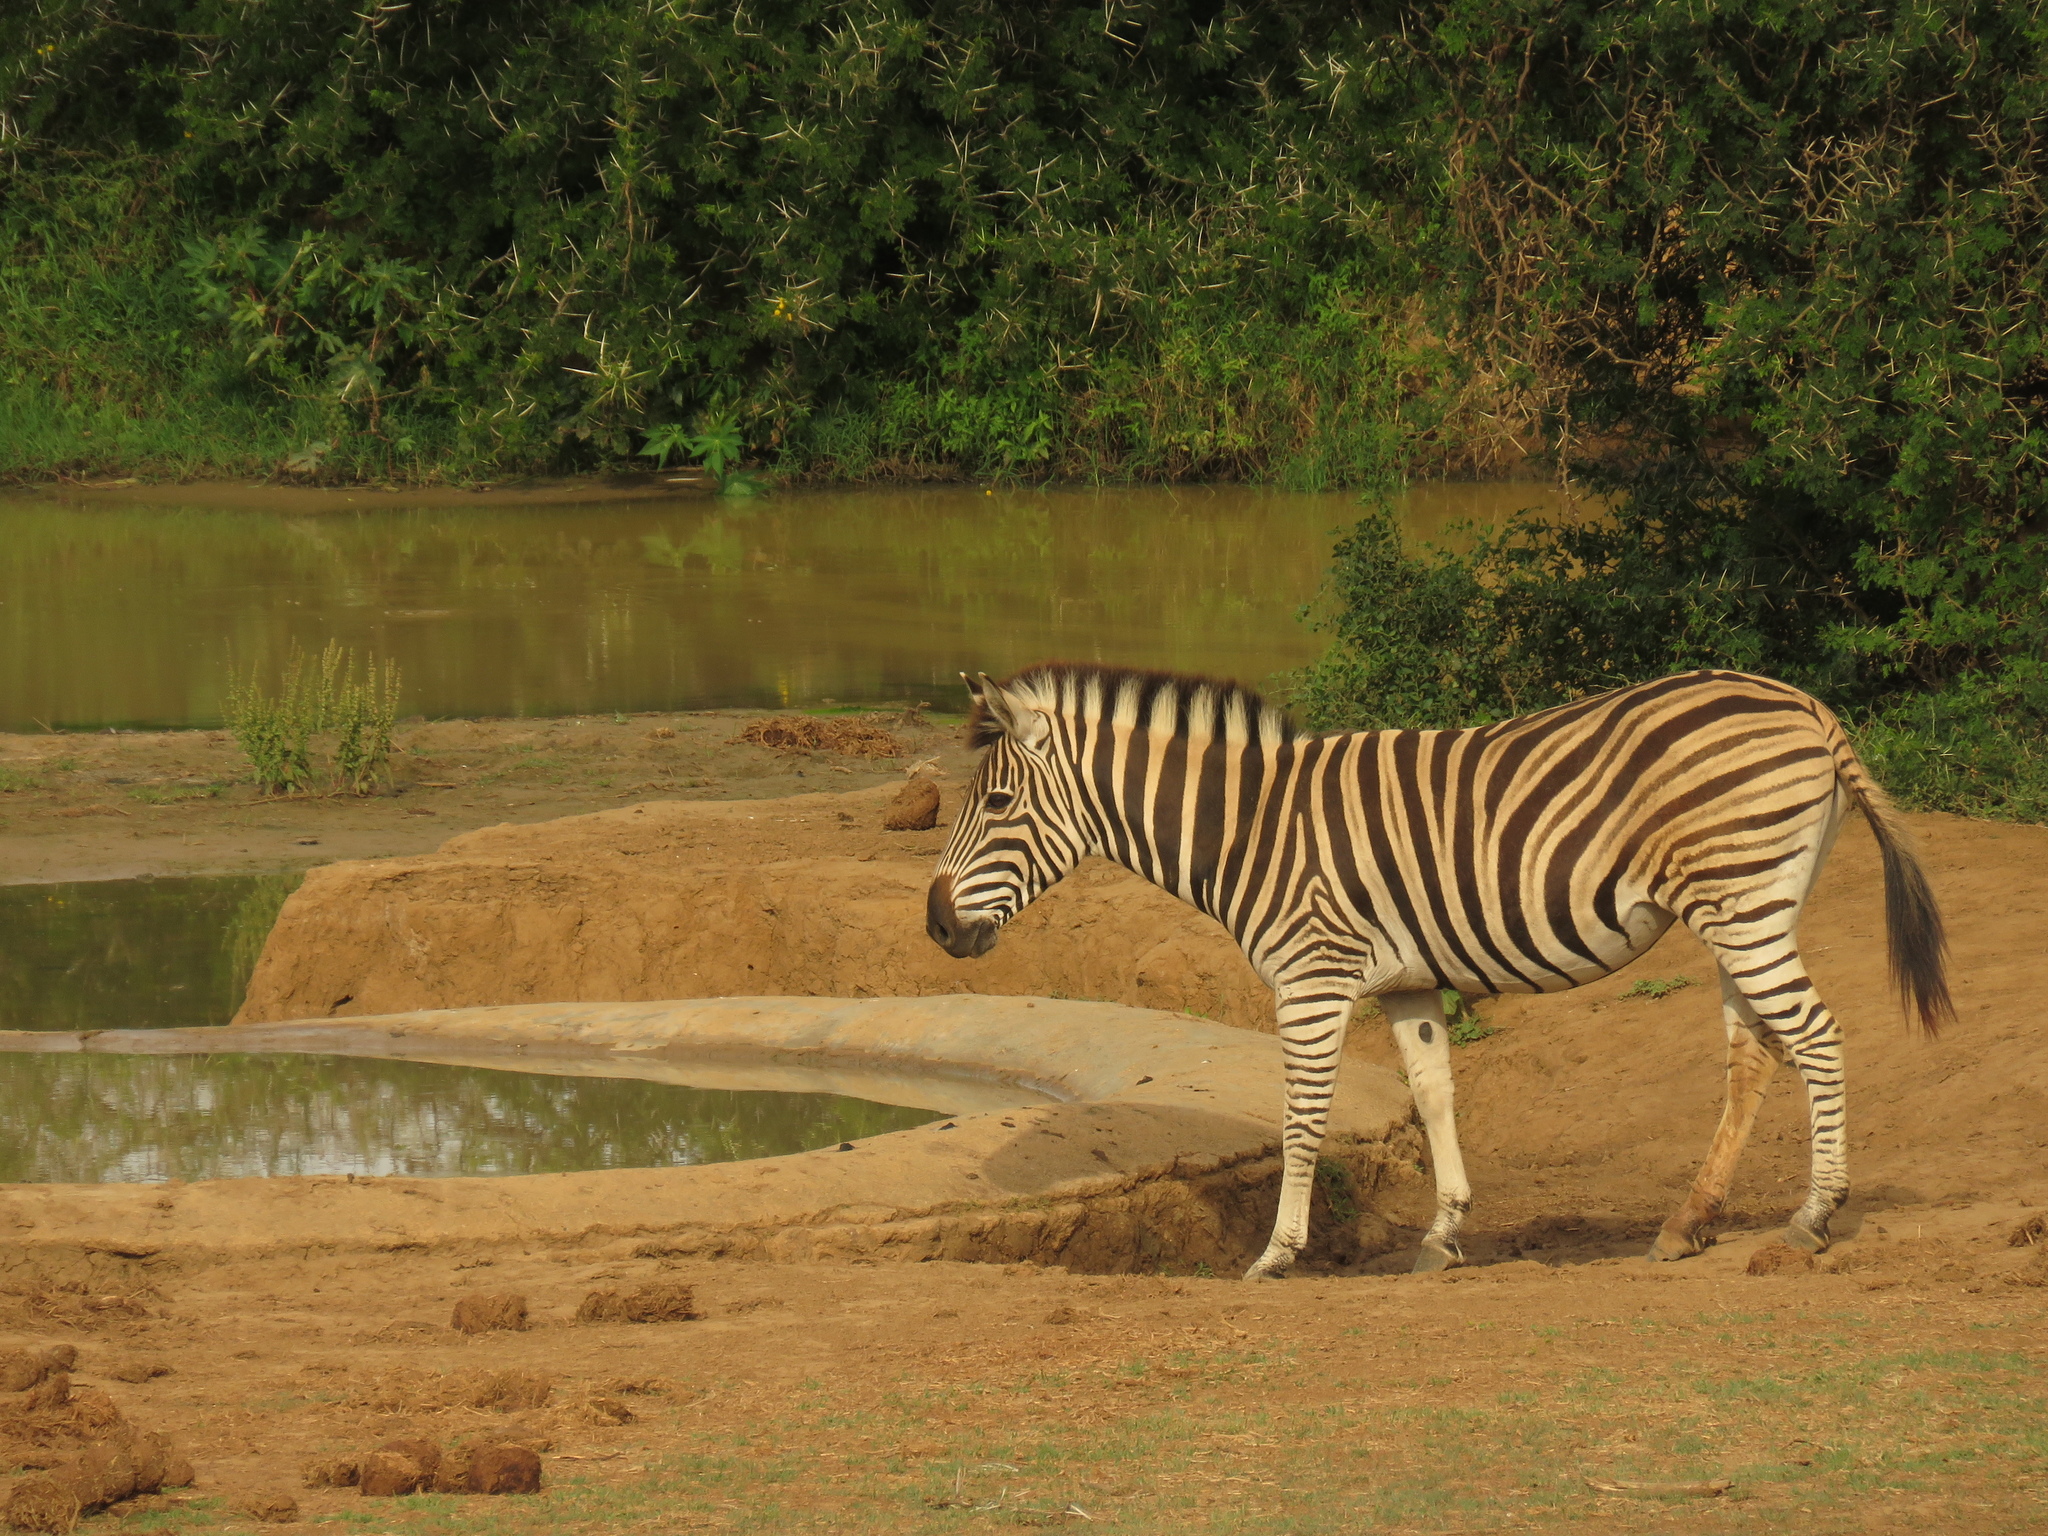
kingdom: Animalia
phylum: Chordata
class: Mammalia
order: Perissodactyla
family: Equidae
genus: Equus
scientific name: Equus quagga
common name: Plains zebra
